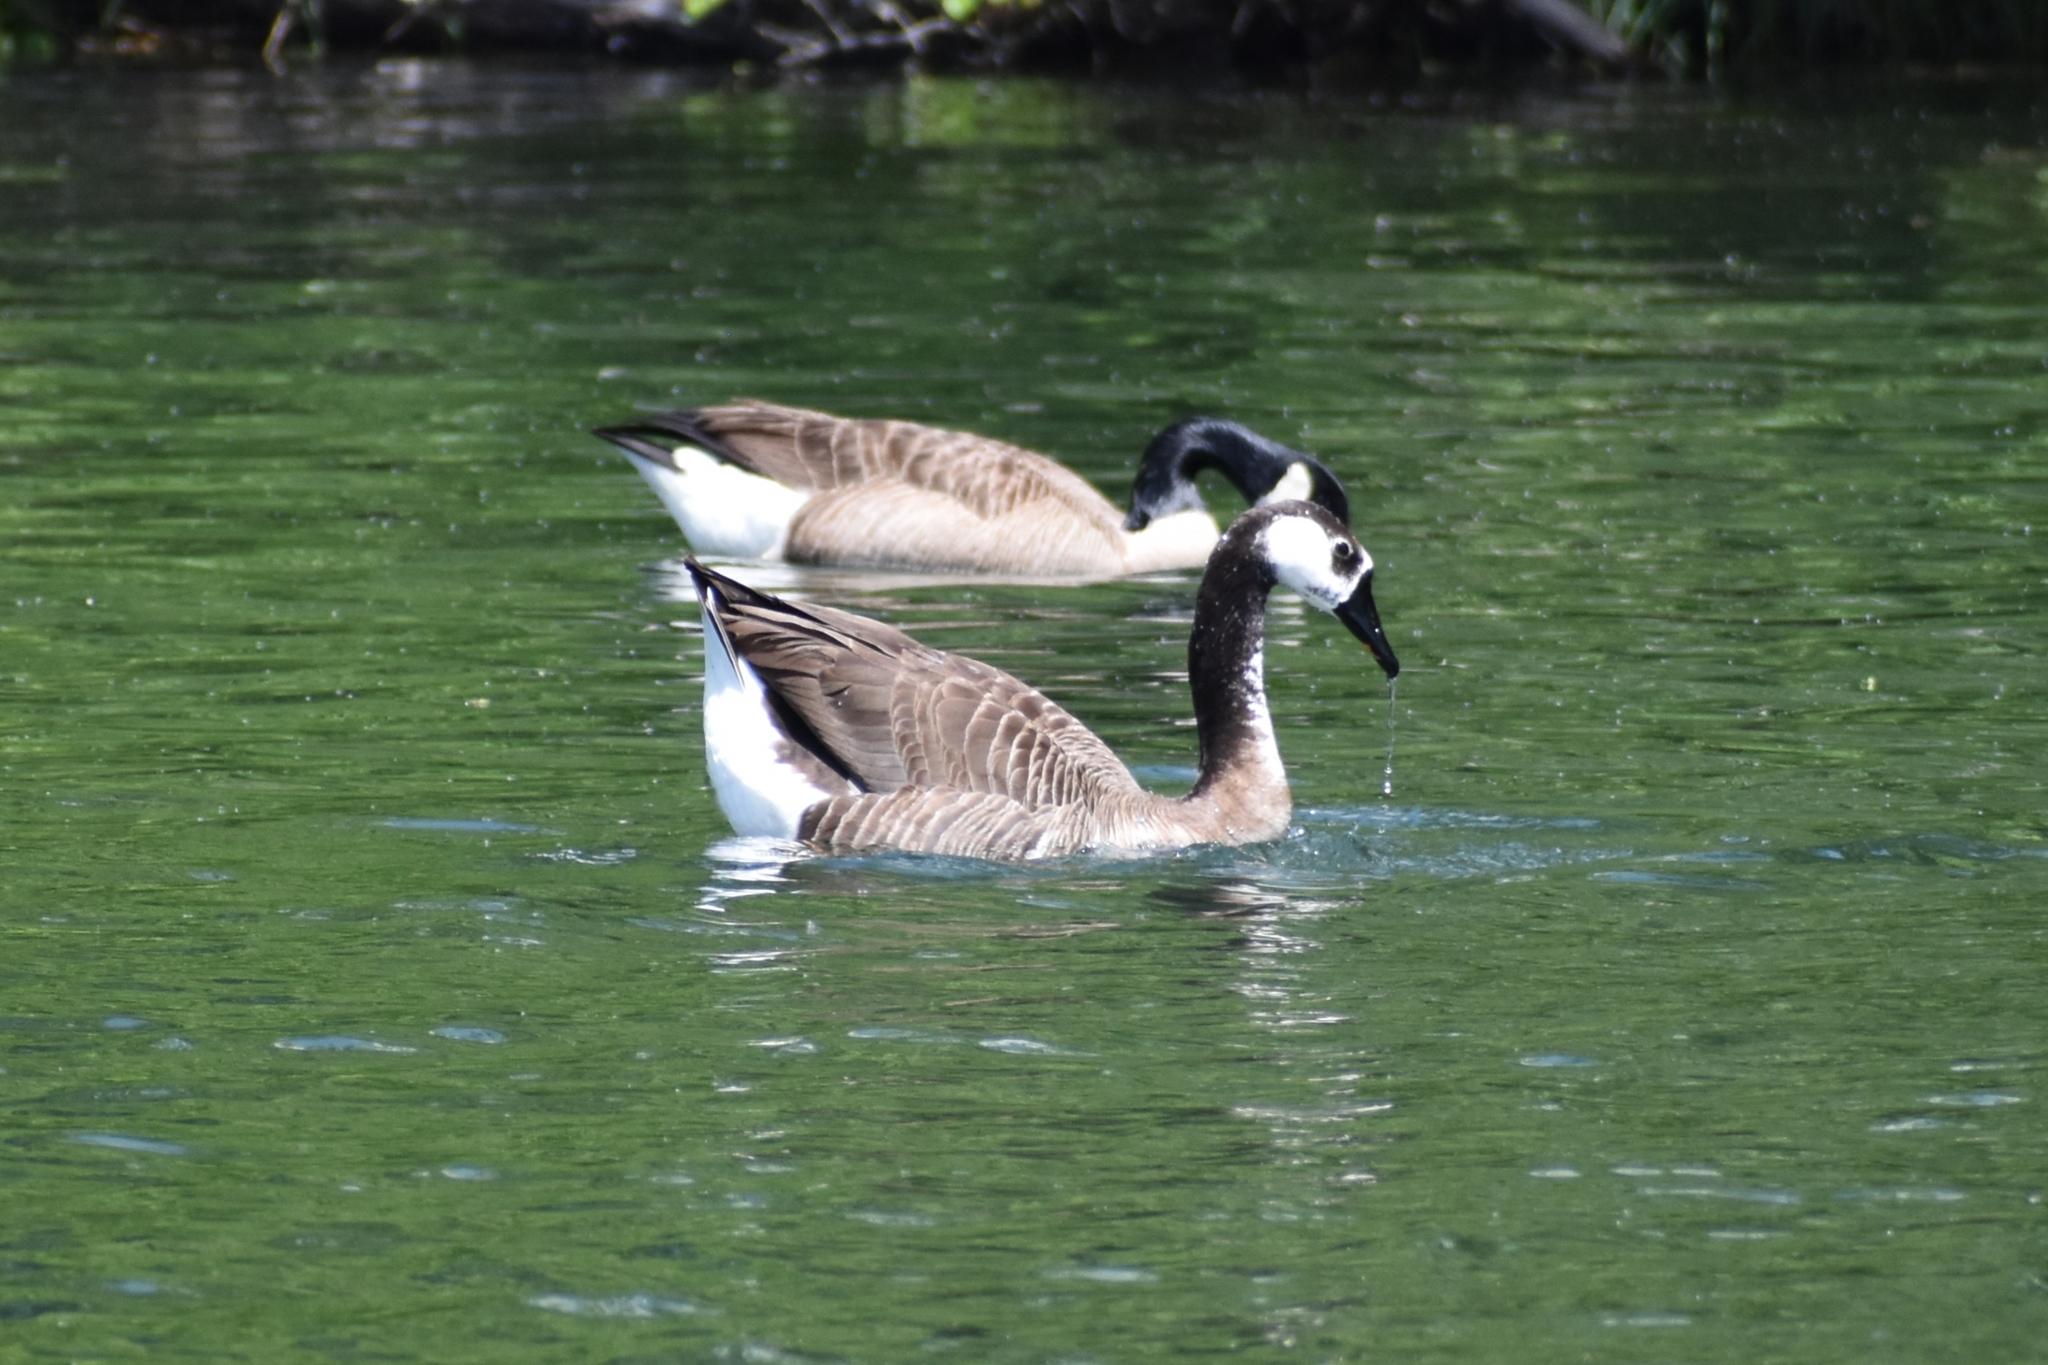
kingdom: Animalia
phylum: Chordata
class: Aves
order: Anseriformes
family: Anatidae
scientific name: Anatidae
